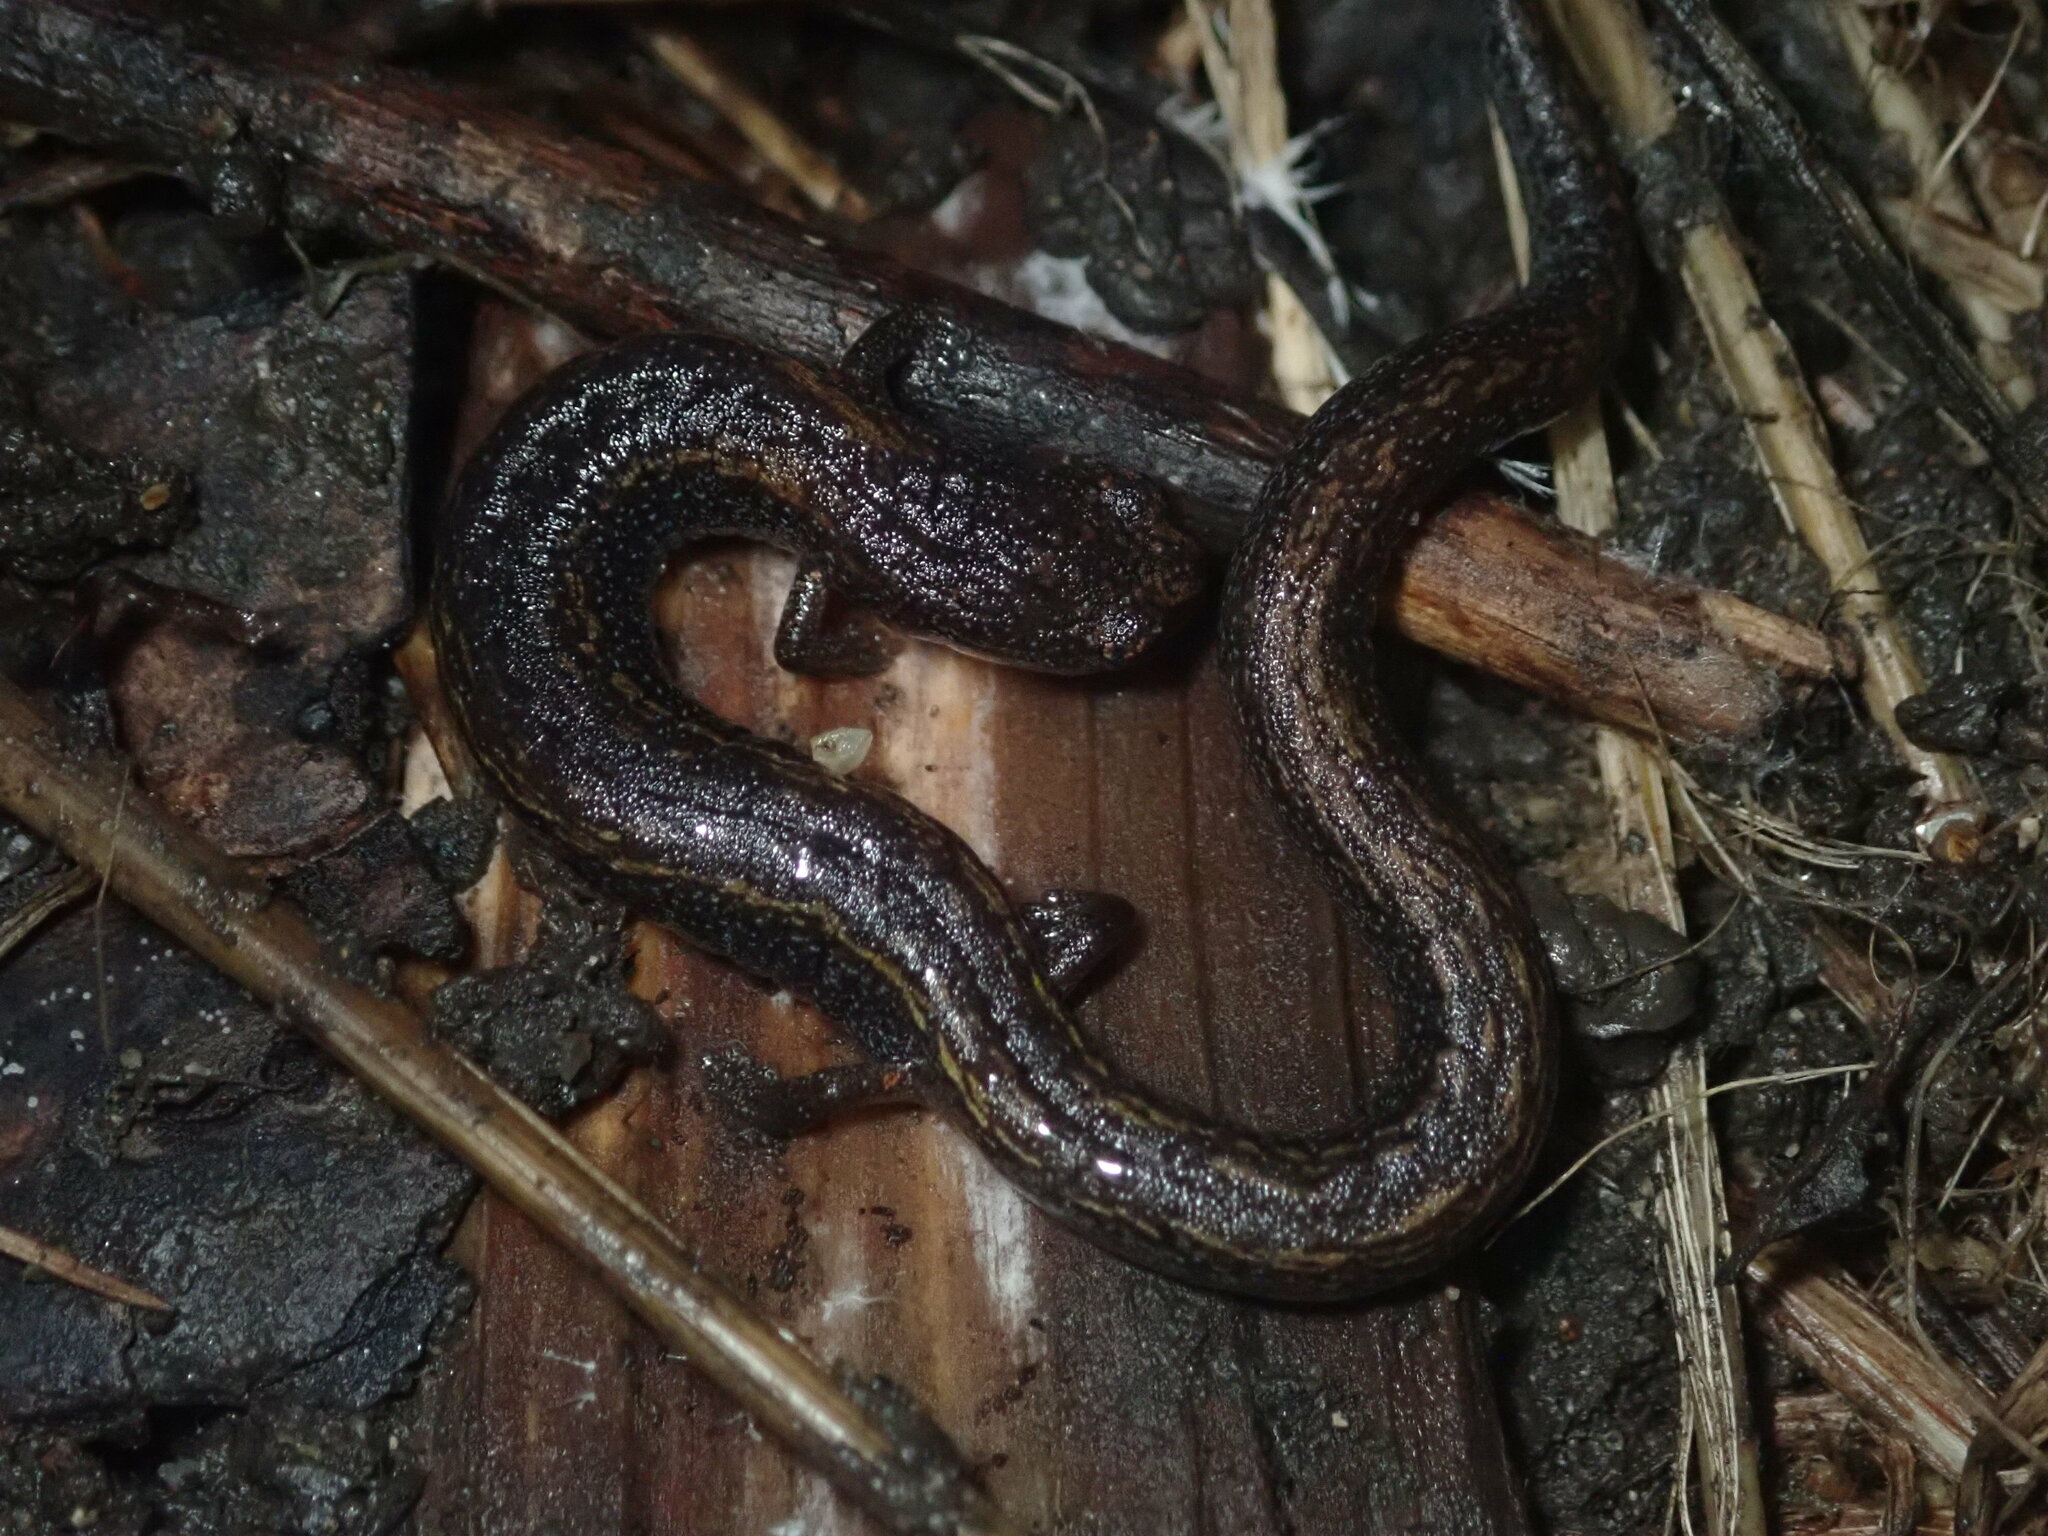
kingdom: Animalia
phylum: Chordata
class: Amphibia
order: Caudata
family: Plethodontidae
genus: Batrachoseps
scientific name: Batrachoseps attenuatus
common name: California slender salamander
